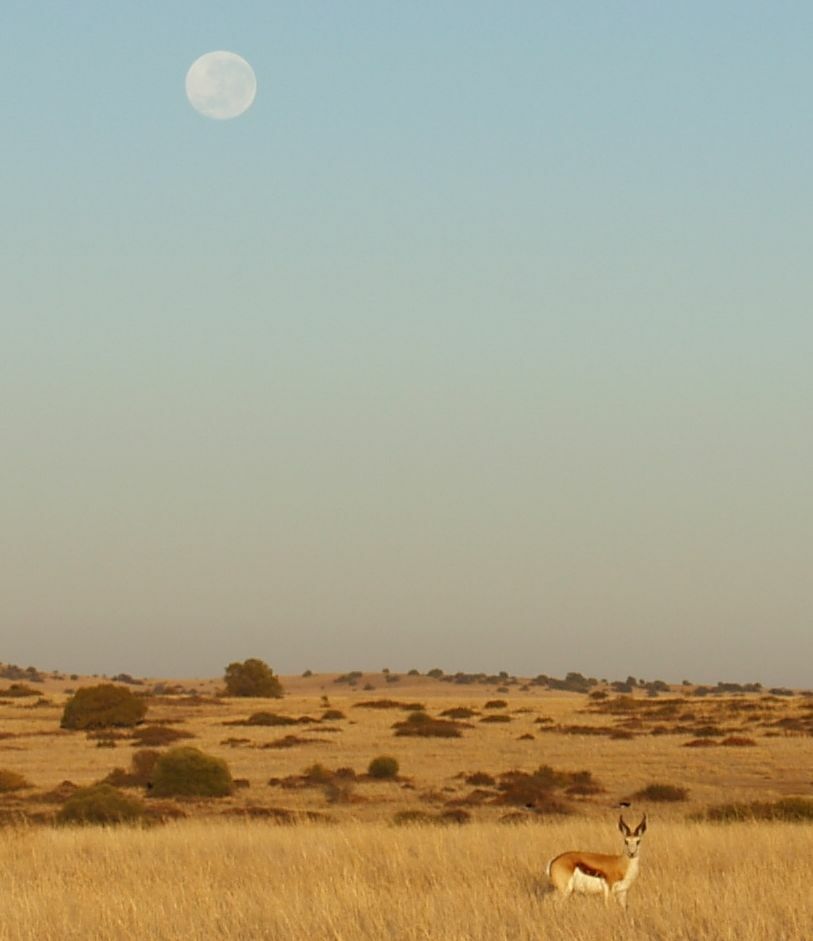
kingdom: Animalia
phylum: Chordata
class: Mammalia
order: Artiodactyla
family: Bovidae
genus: Antidorcas
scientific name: Antidorcas marsupialis
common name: Springbok
